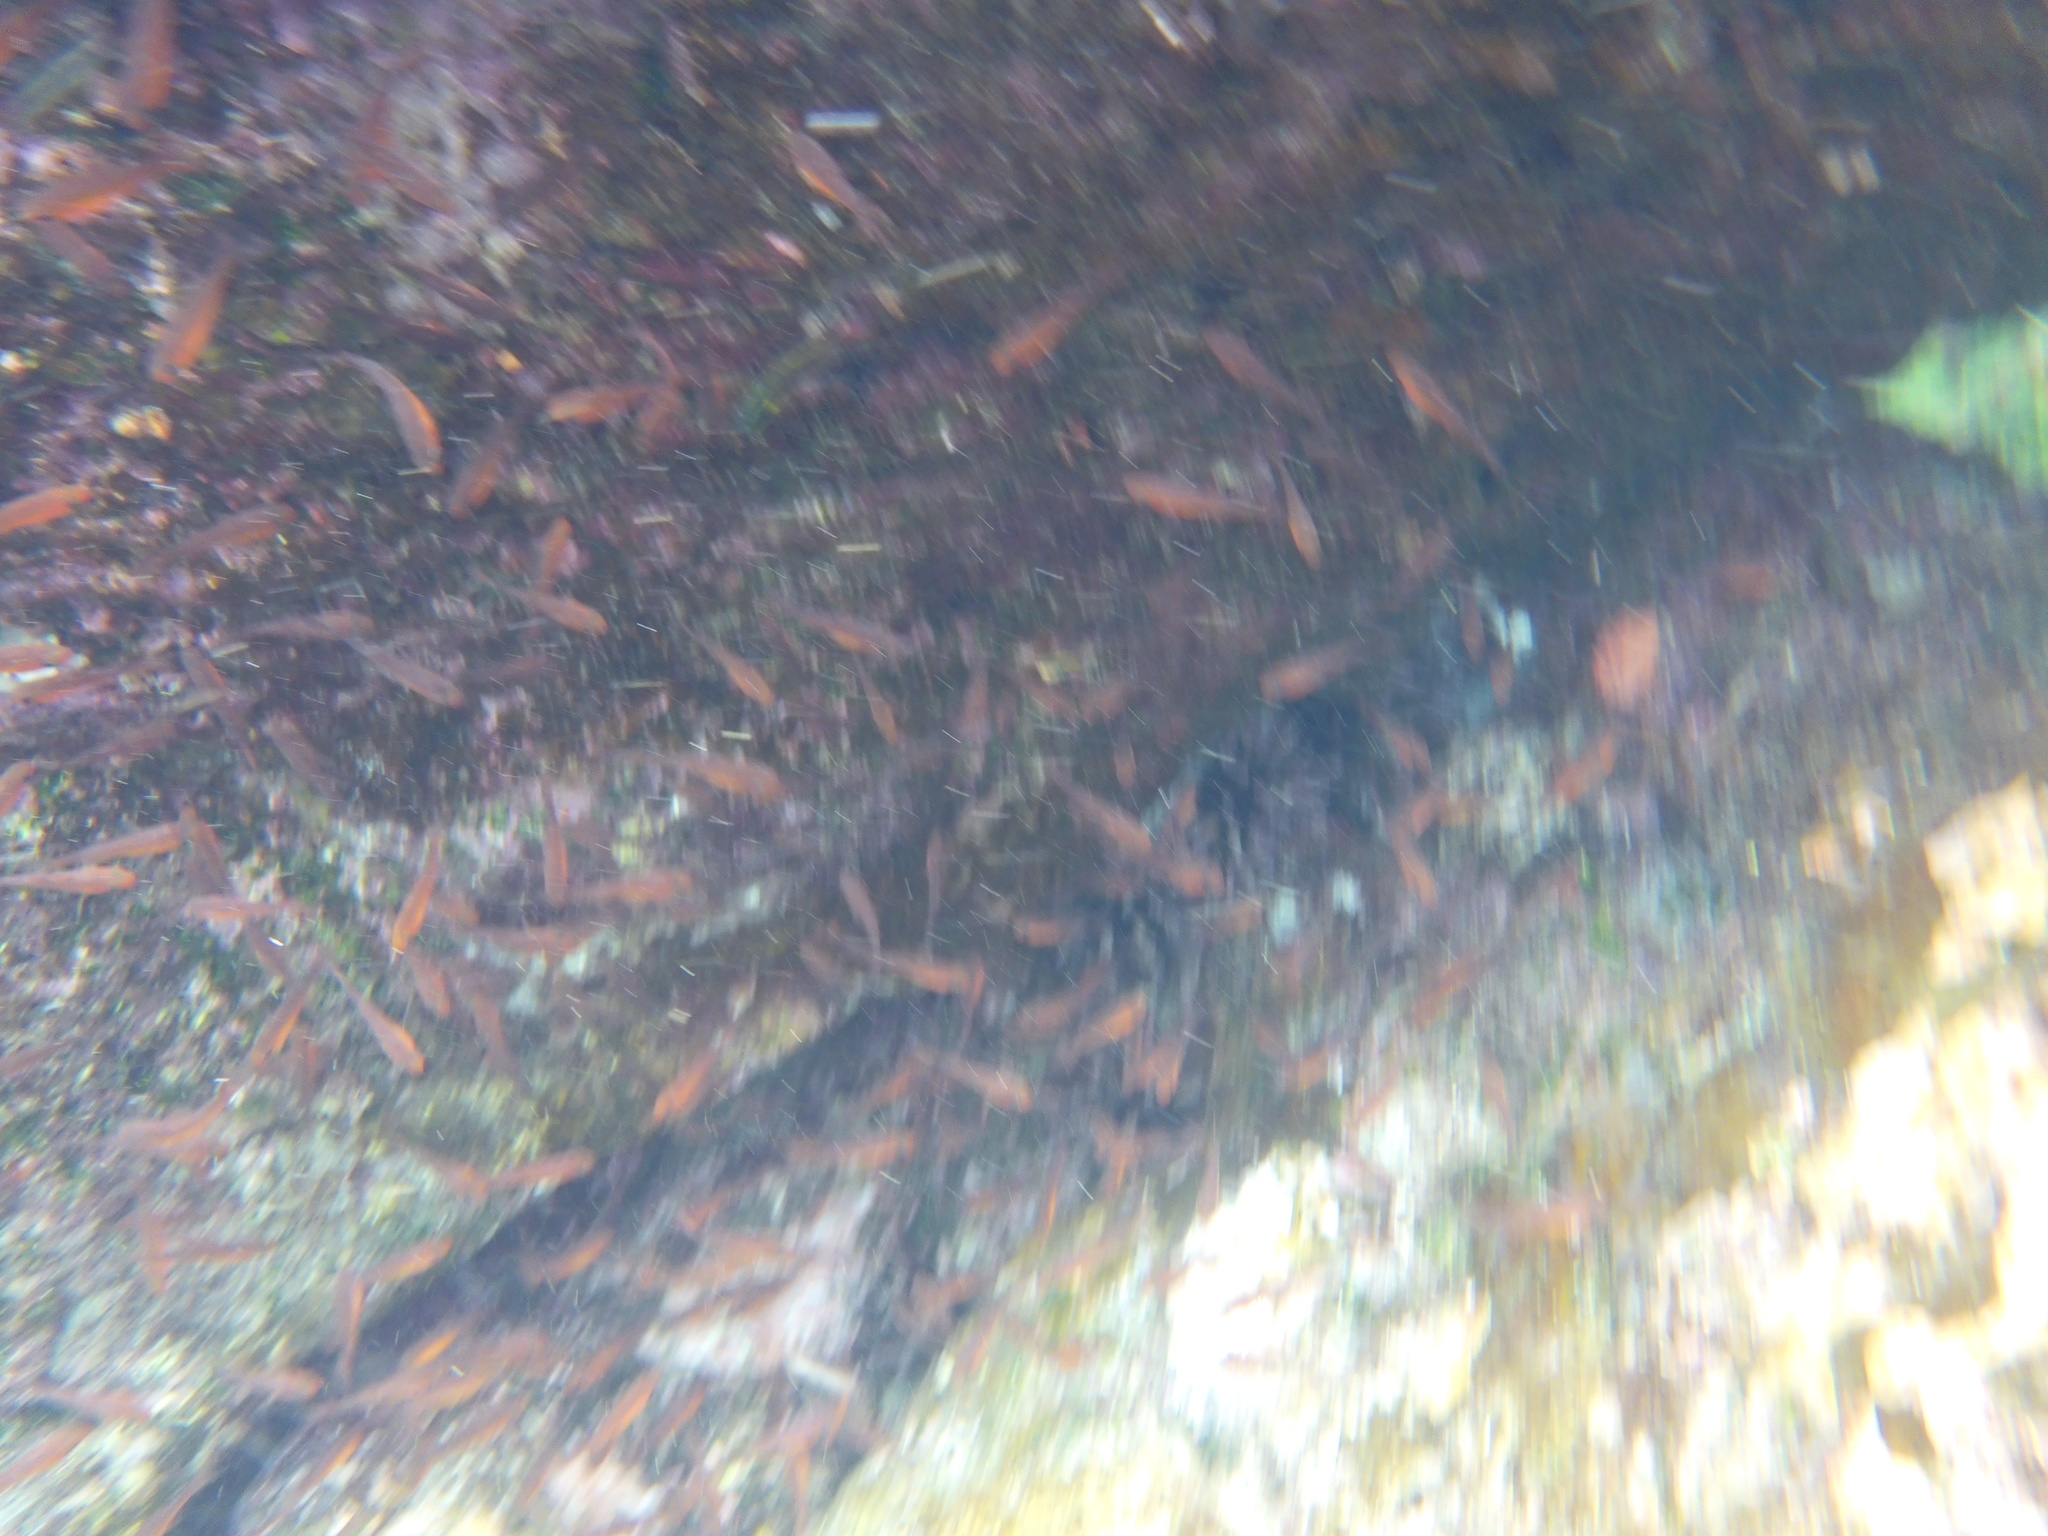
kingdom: Animalia
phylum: Chordata
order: Perciformes
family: Apogonidae
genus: Apogon
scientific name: Apogon atradorsatus
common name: Blacktip cardinalfish
